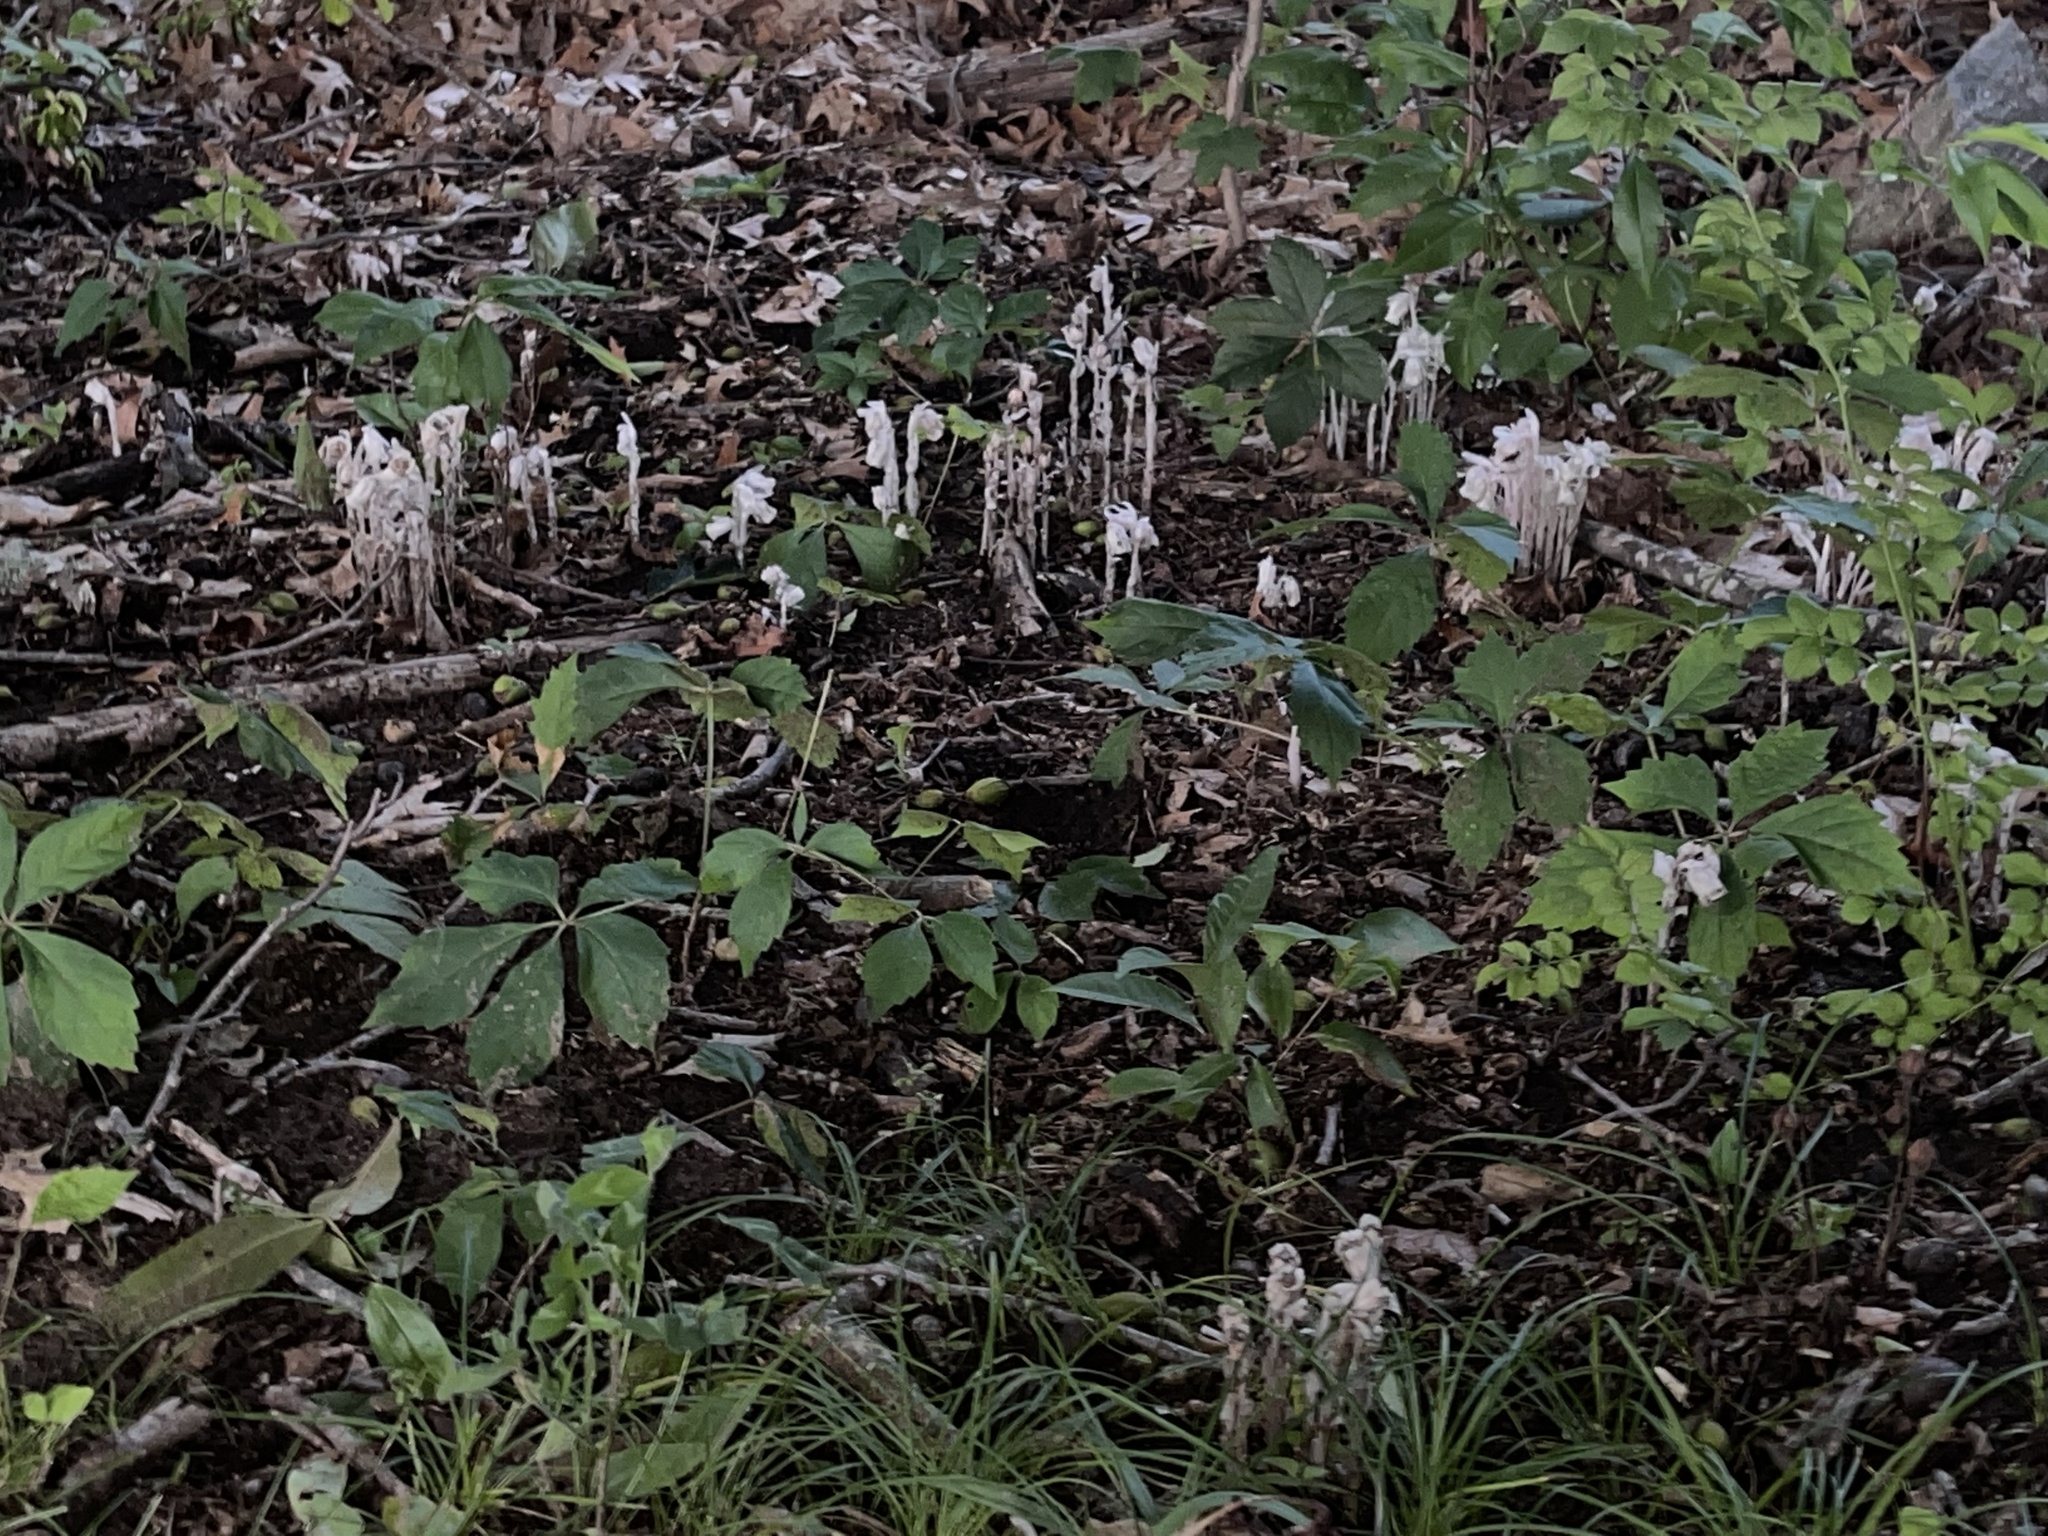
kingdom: Plantae
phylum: Tracheophyta
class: Magnoliopsida
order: Ericales
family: Ericaceae
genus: Monotropa
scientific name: Monotropa uniflora
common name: Convulsion root
